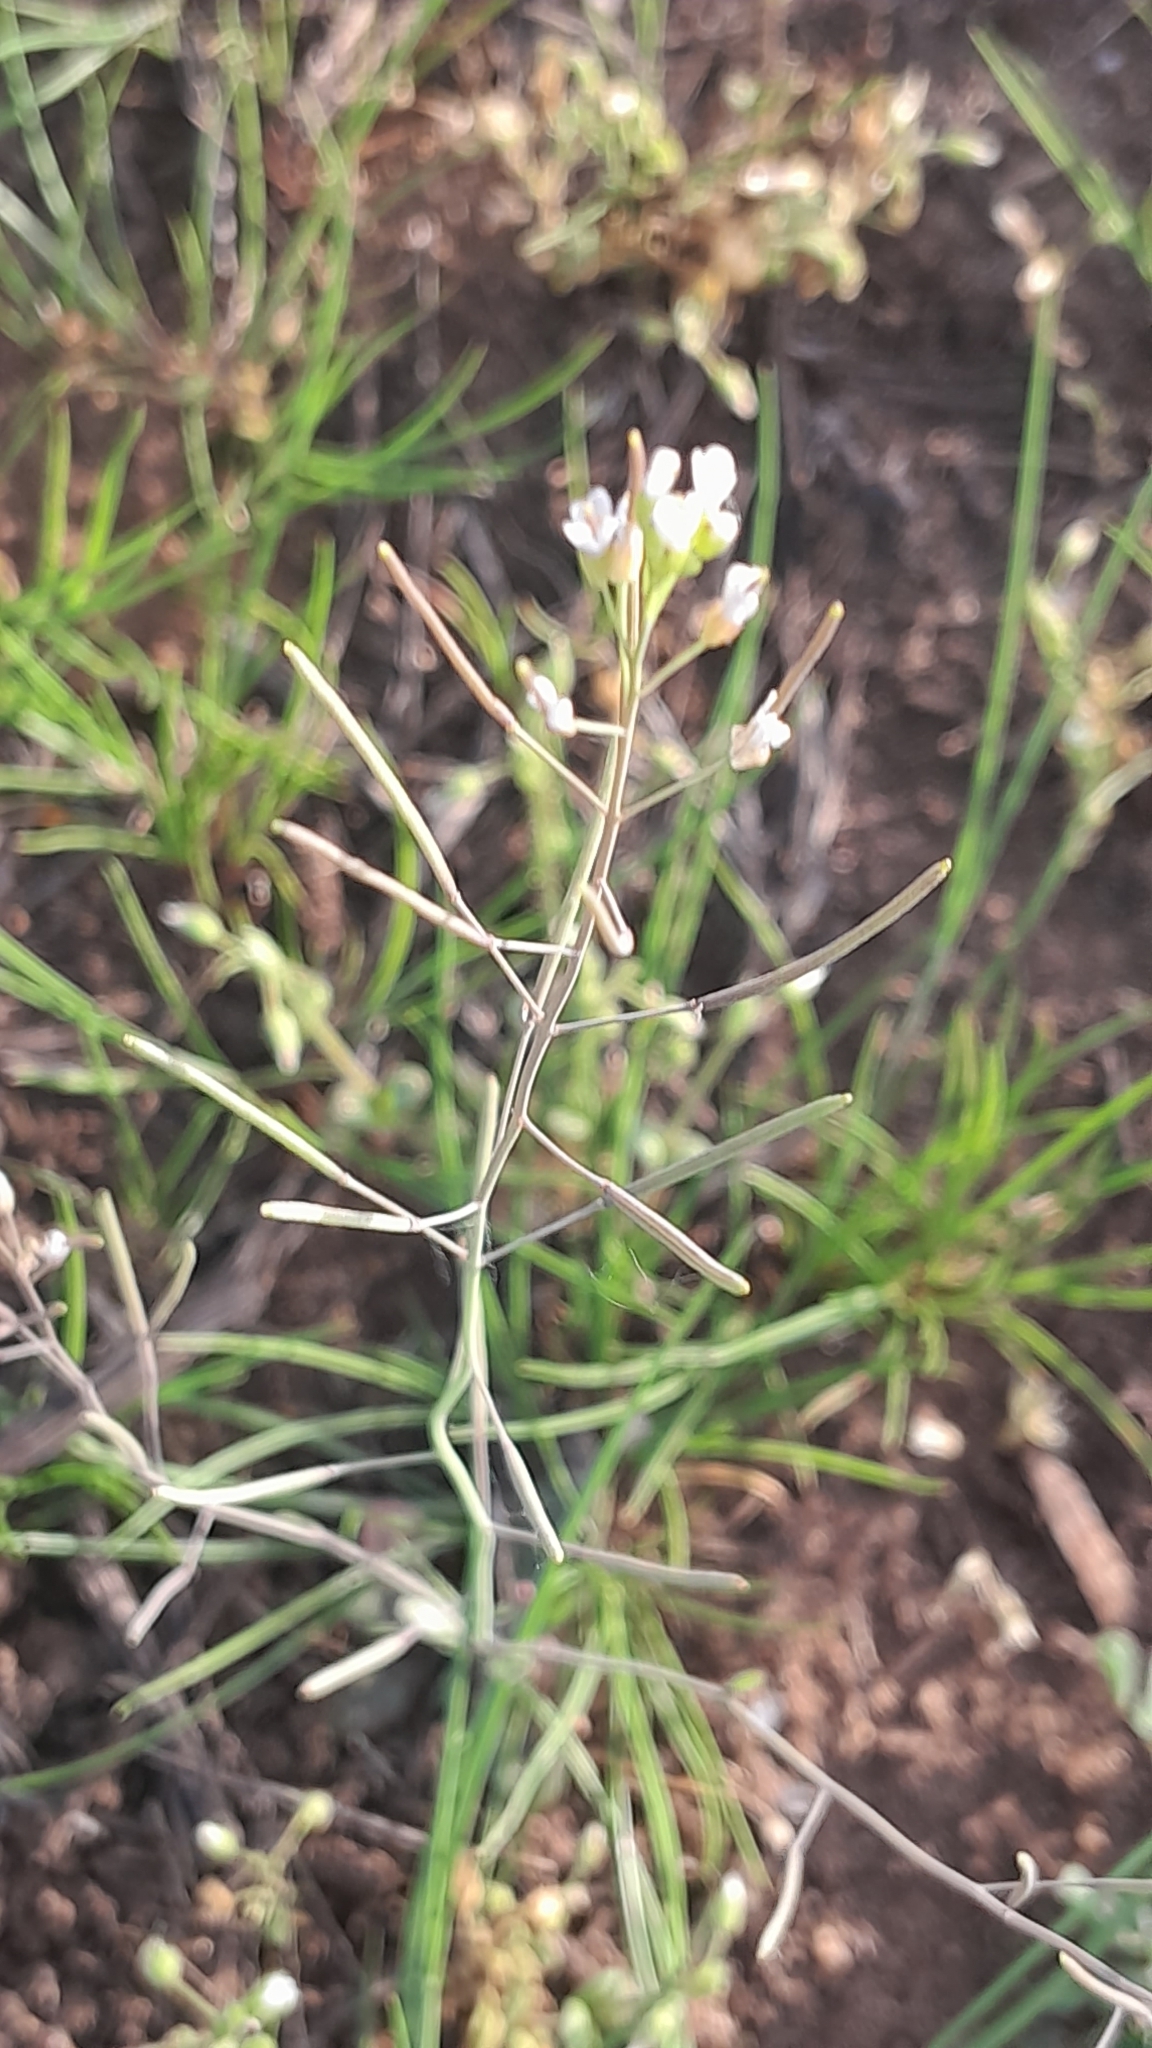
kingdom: Plantae
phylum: Tracheophyta
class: Magnoliopsida
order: Brassicales
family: Brassicaceae
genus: Arabidopsis
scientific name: Arabidopsis thaliana
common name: Thale cress
